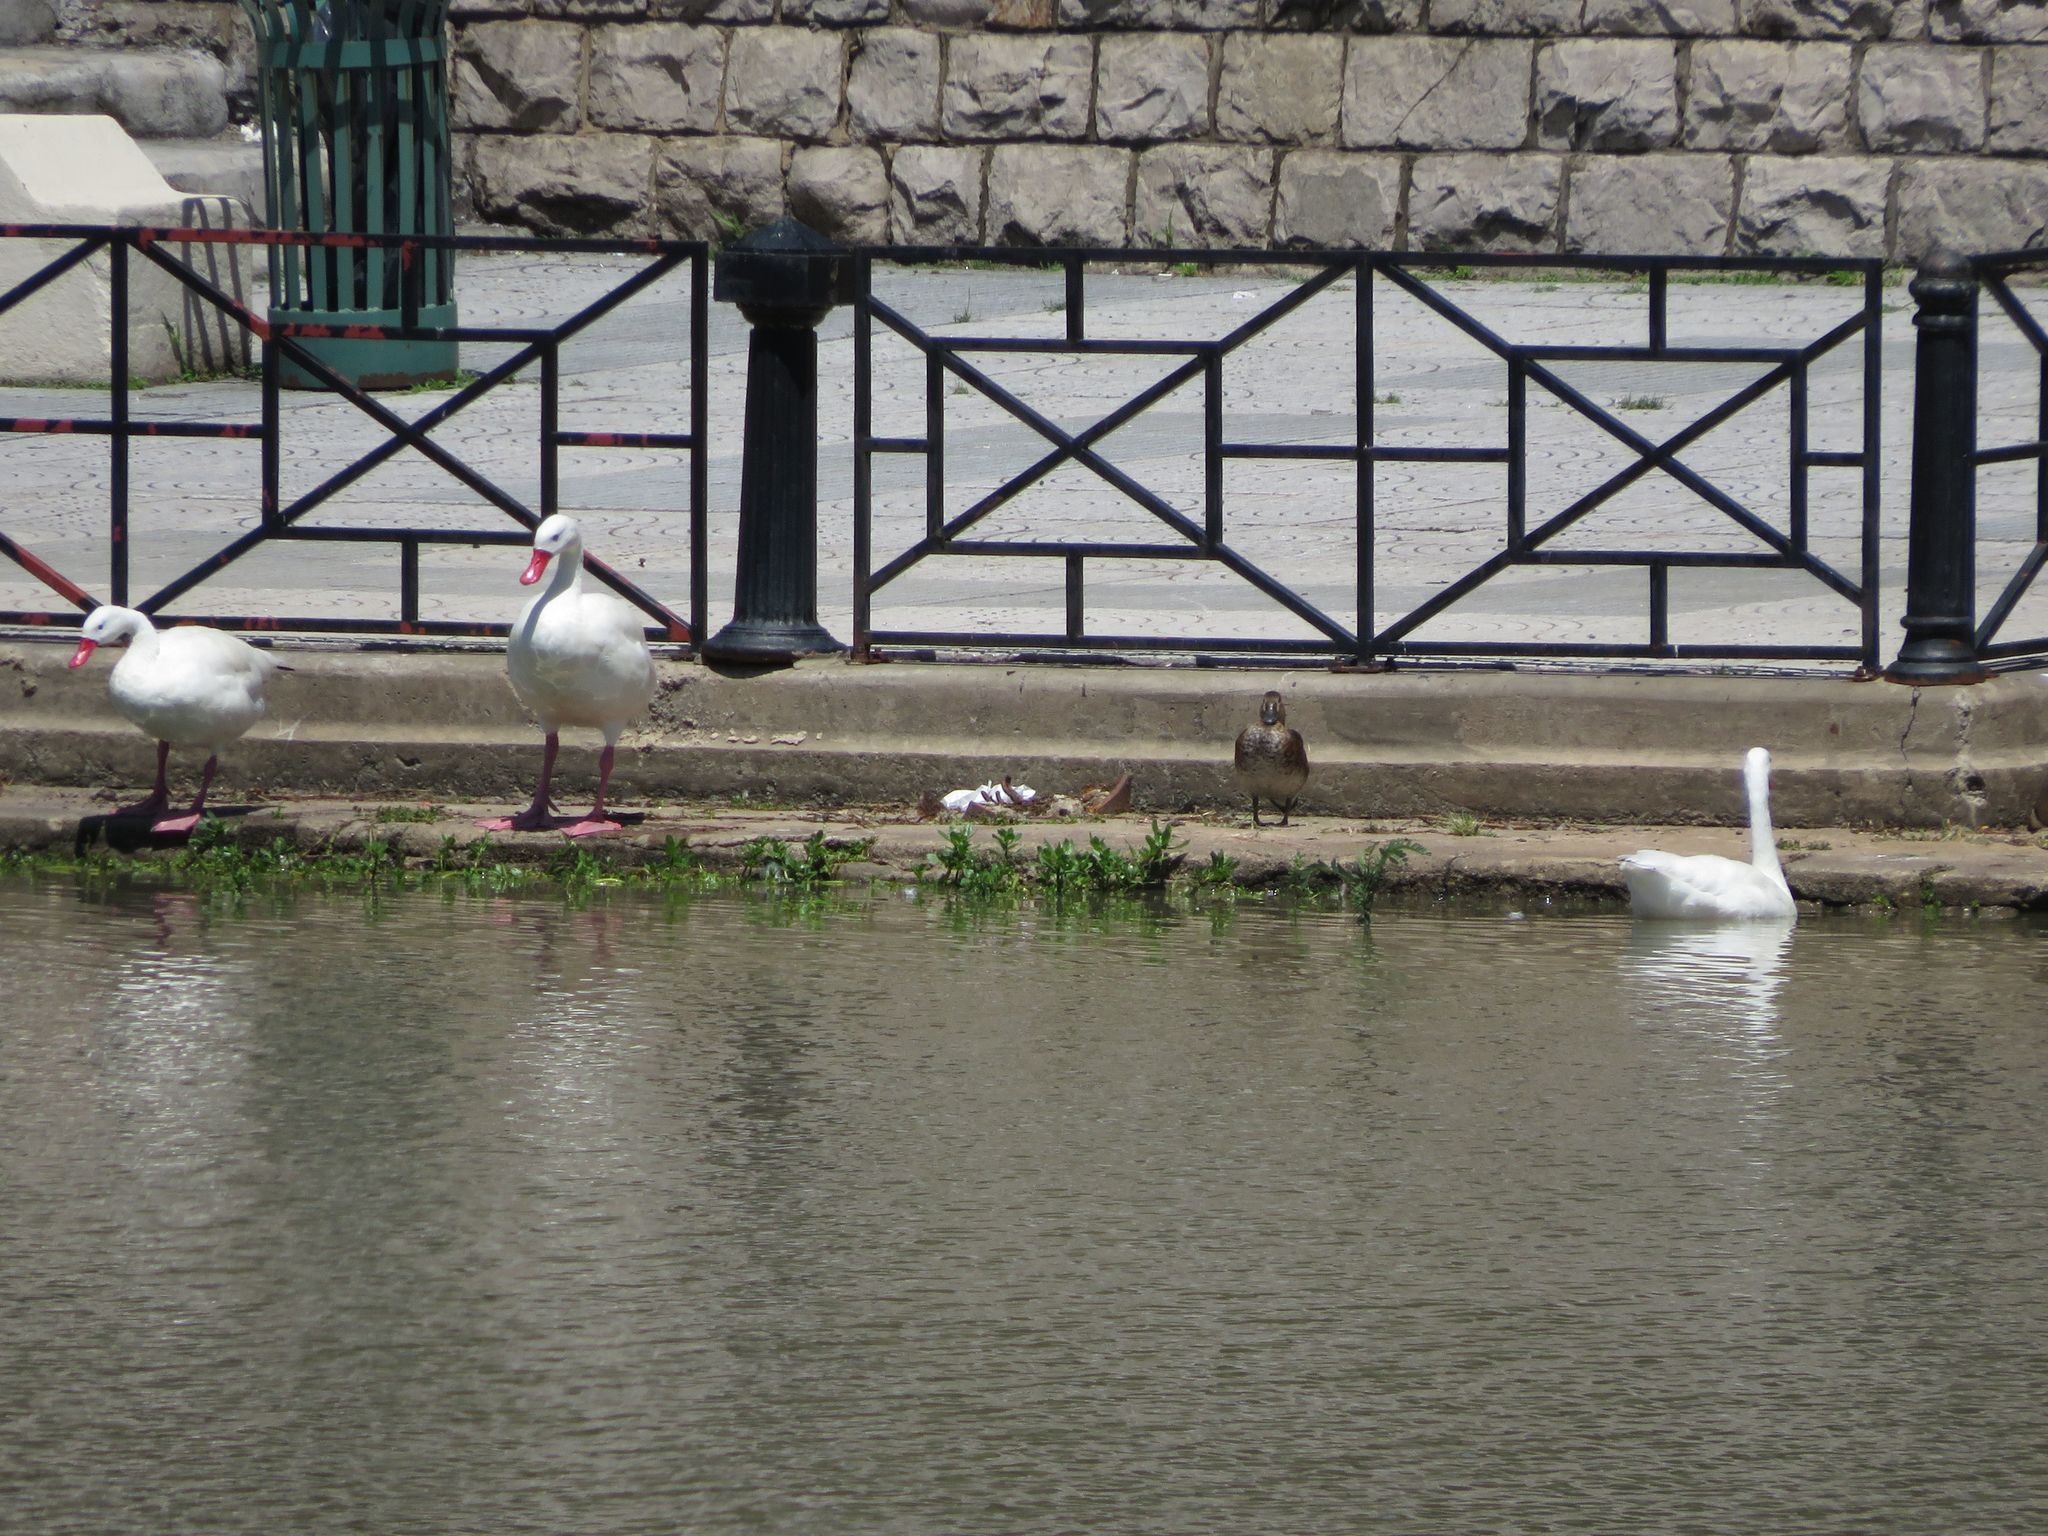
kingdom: Animalia
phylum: Chordata
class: Aves
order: Anseriformes
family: Anatidae
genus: Coscoroba
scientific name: Coscoroba coscoroba
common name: Coscoroba swan
